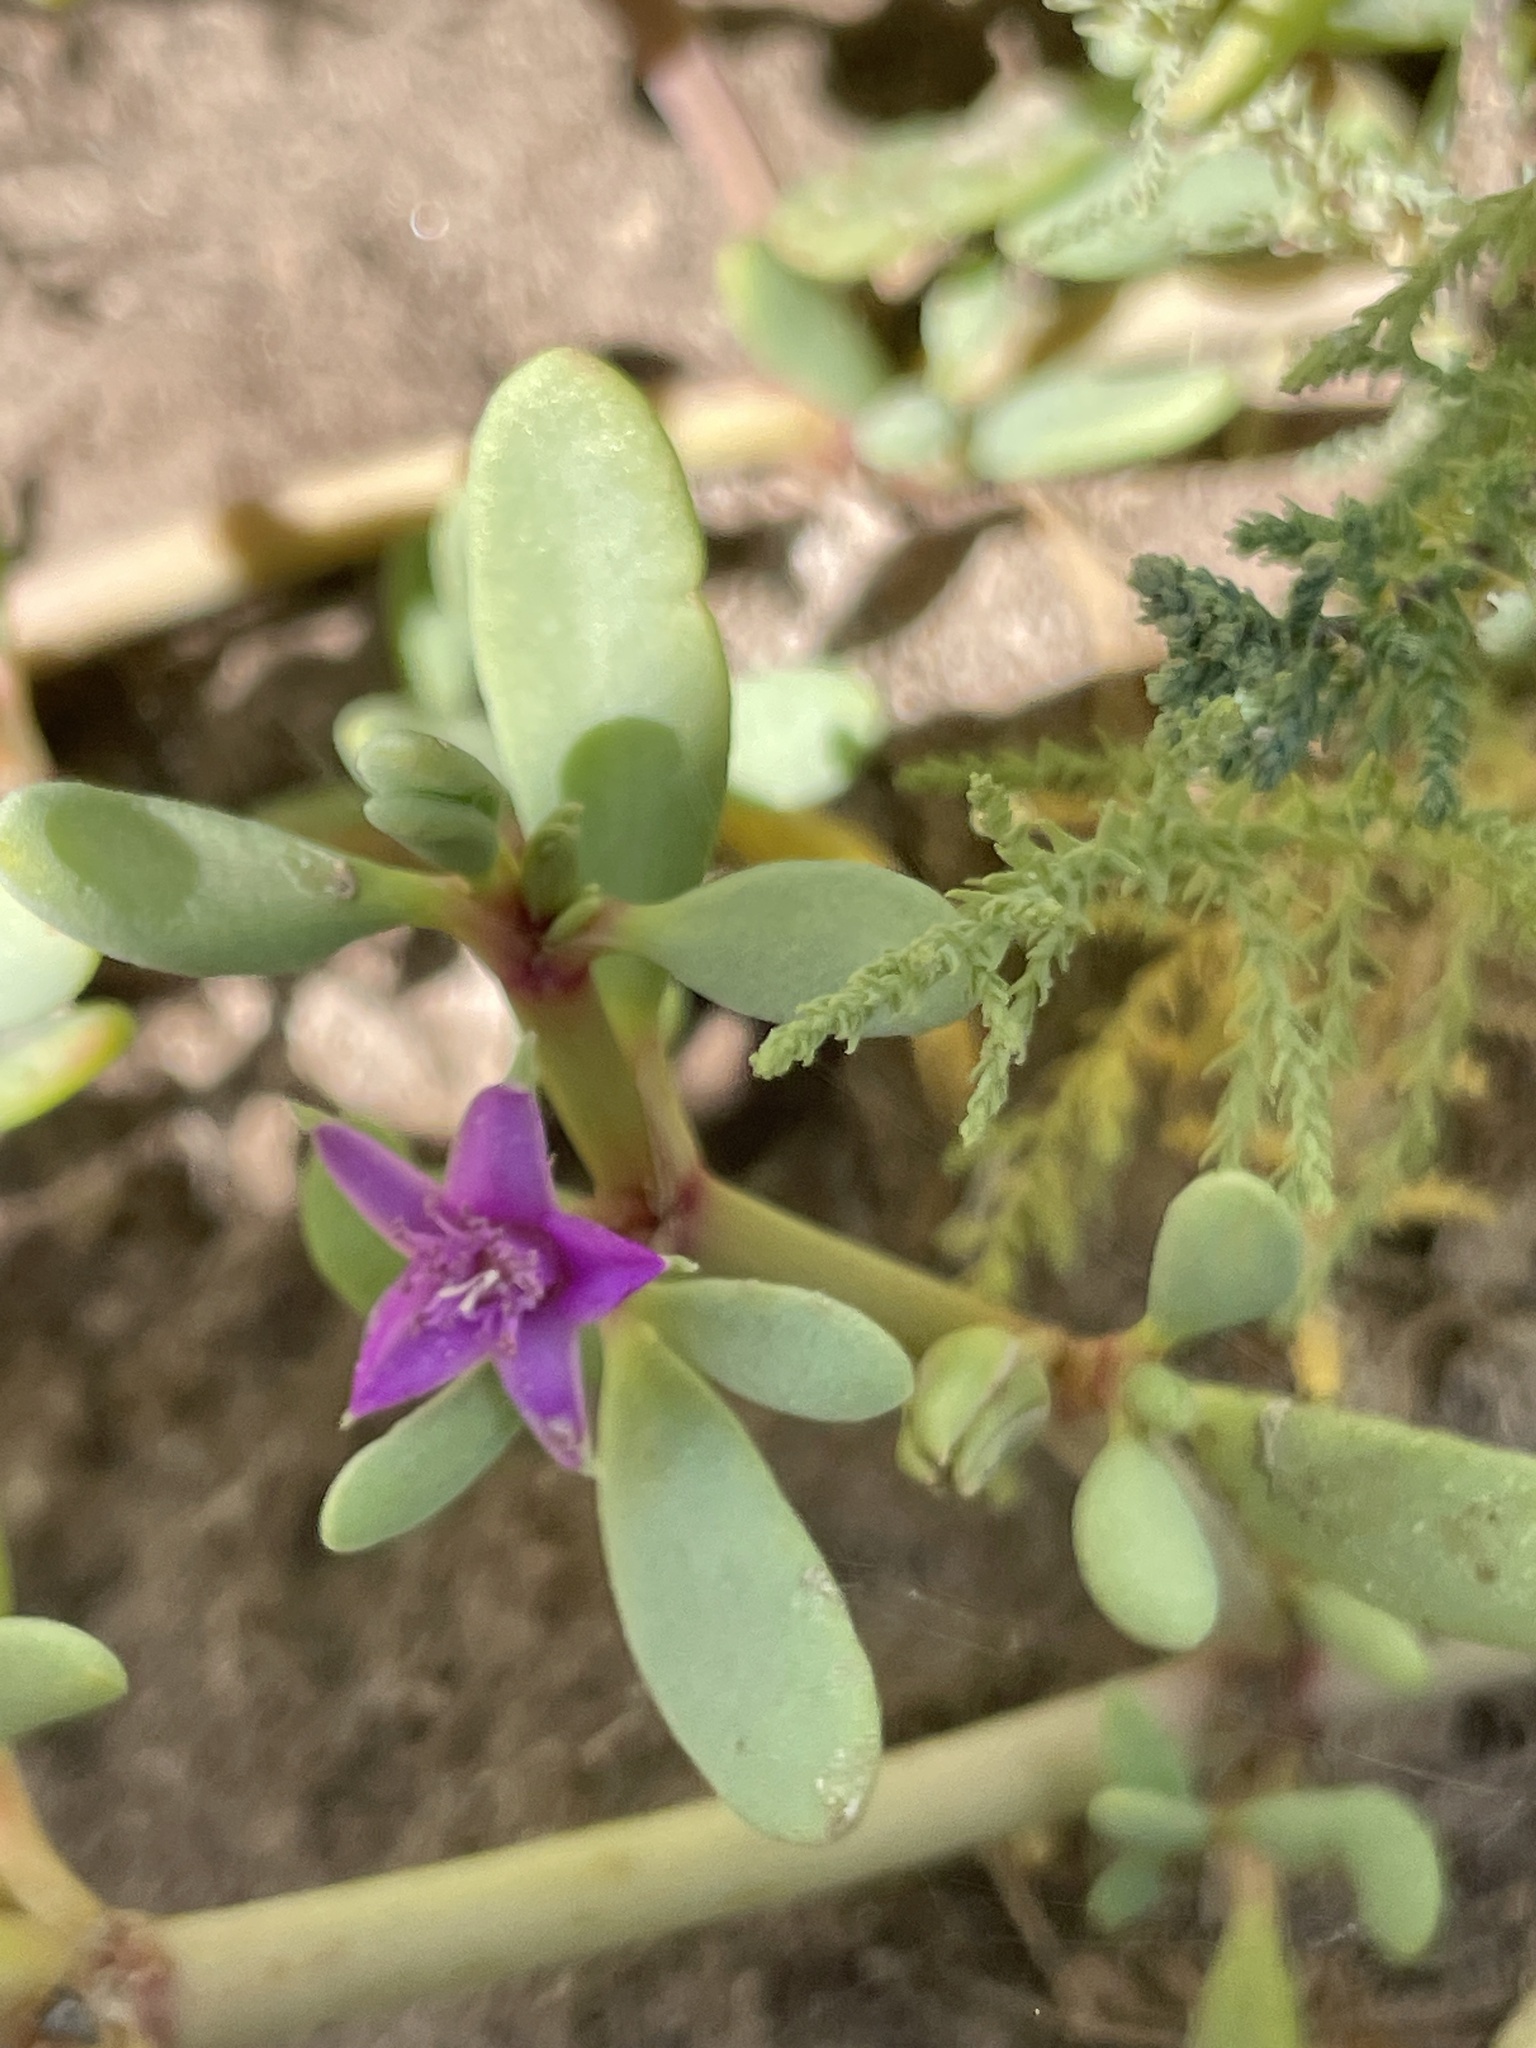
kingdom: Plantae
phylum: Tracheophyta
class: Magnoliopsida
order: Caryophyllales
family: Aizoaceae
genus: Sesuvium
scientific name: Sesuvium portulacastrum
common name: Sea-purslane
